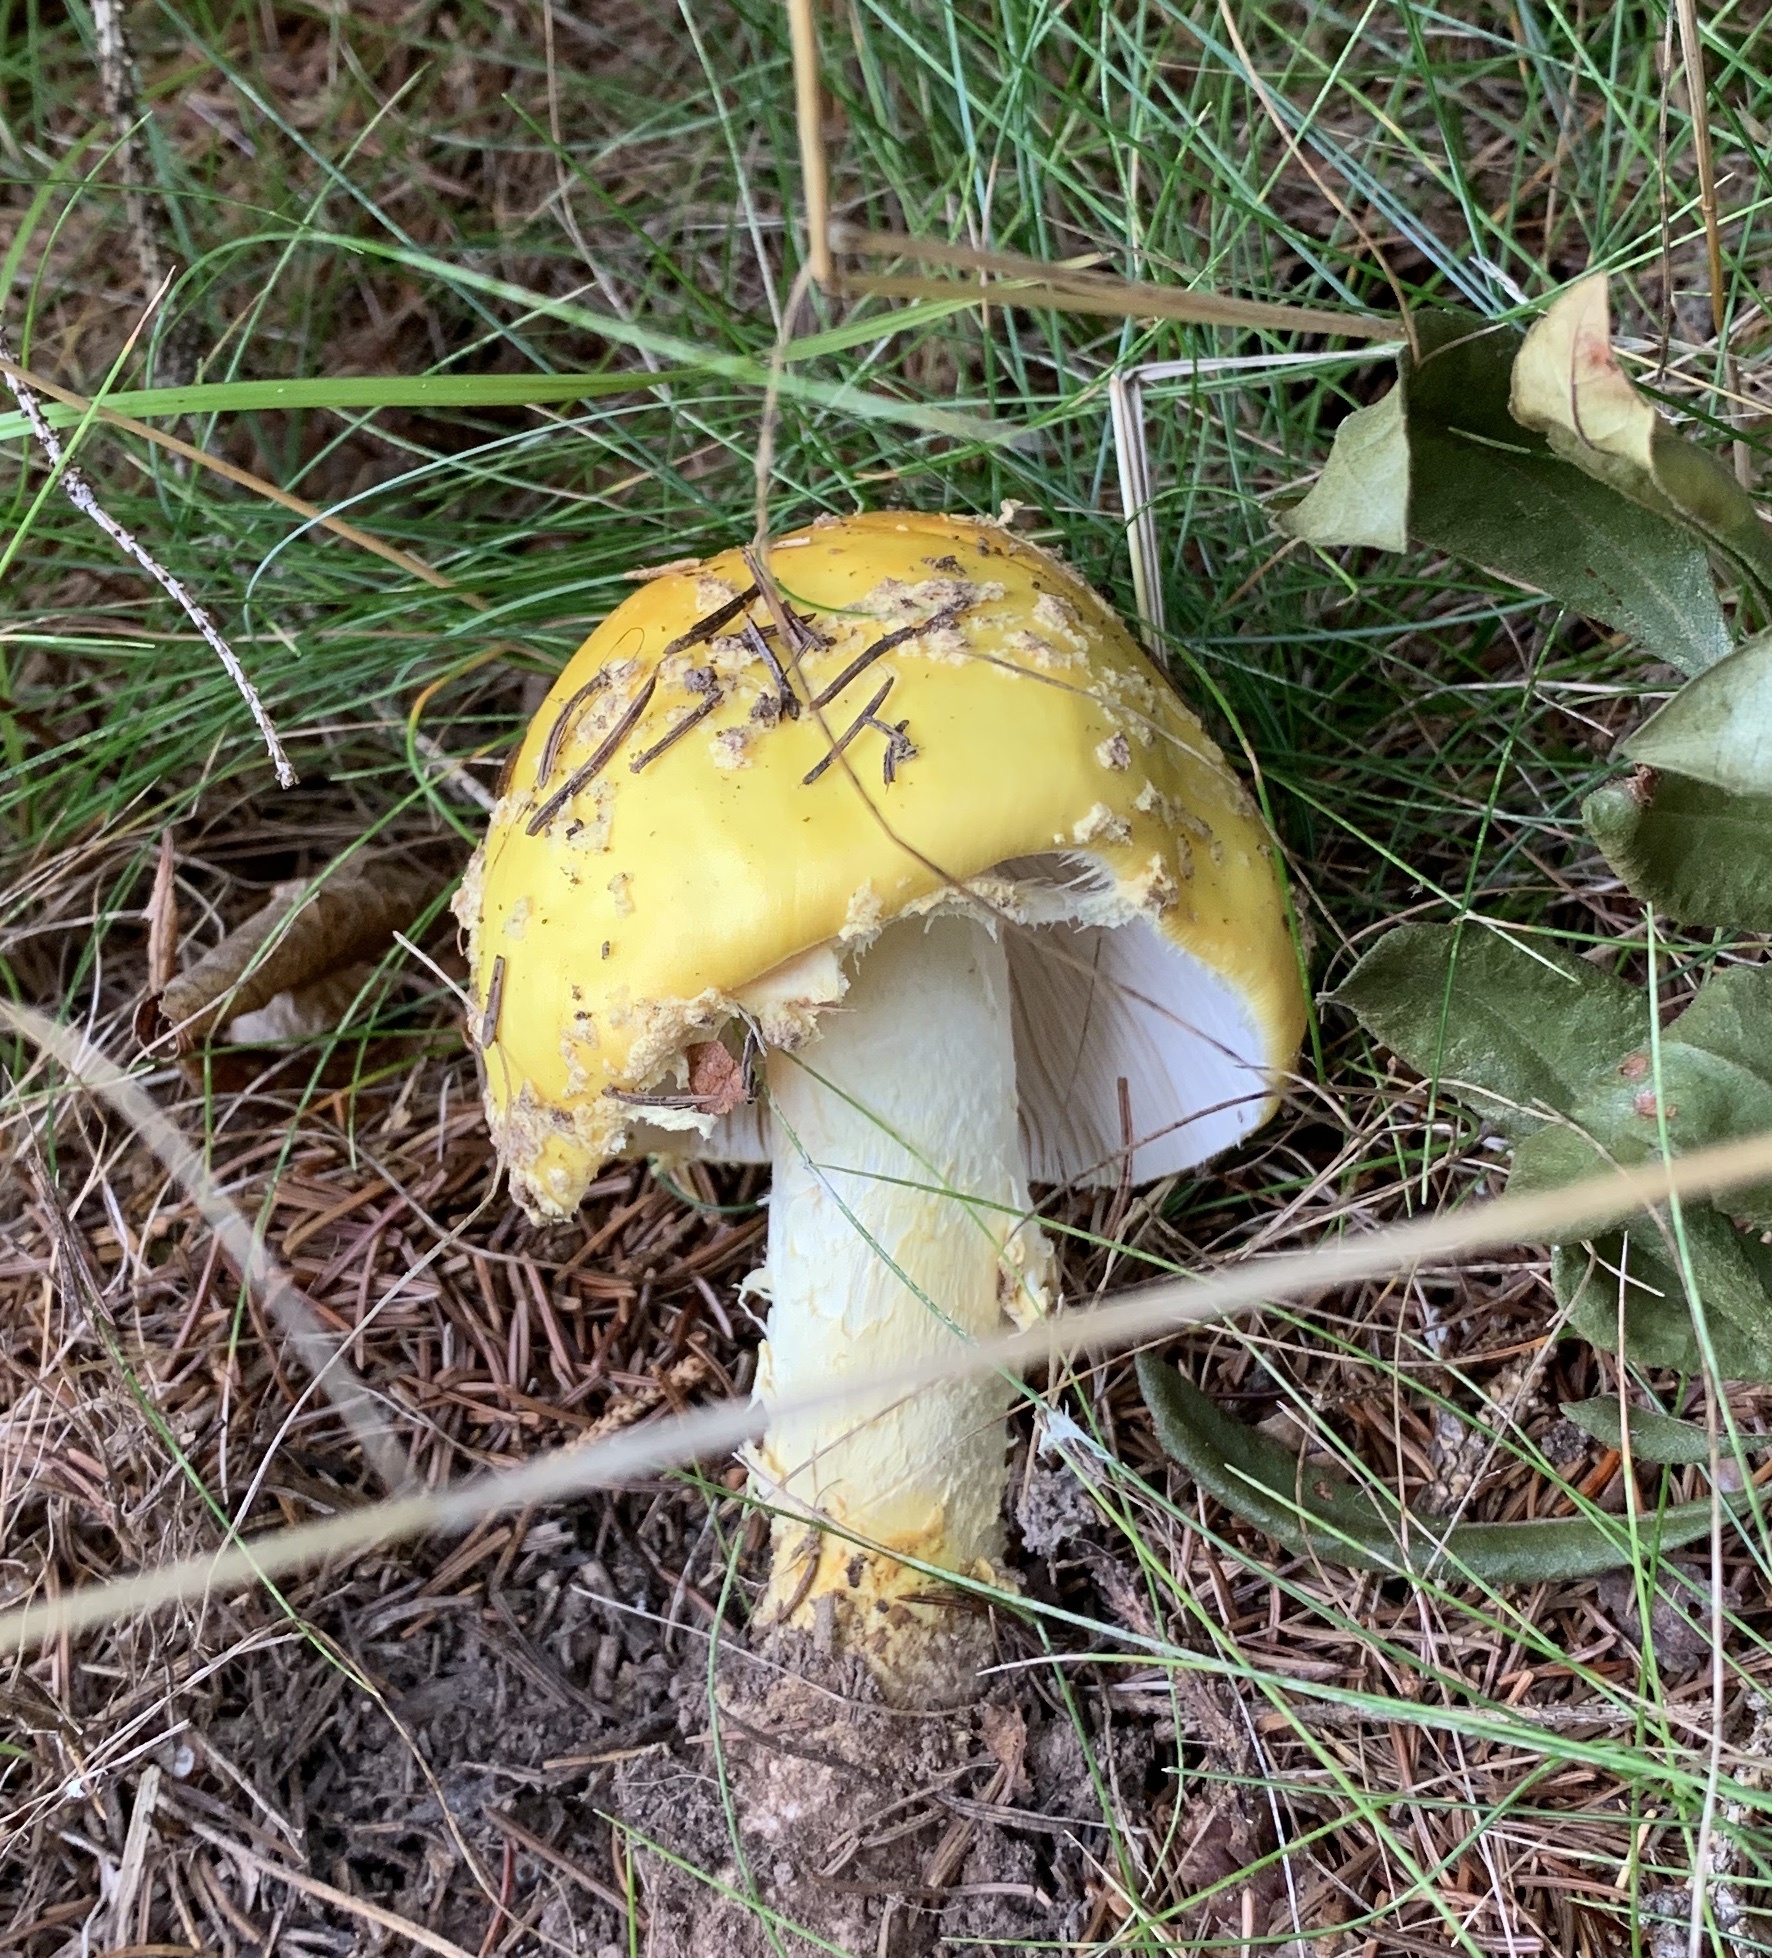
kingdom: Fungi
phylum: Basidiomycota
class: Agaricomycetes
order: Agaricales
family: Amanitaceae
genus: Amanita
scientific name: Amanita muscaria
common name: Fly agaric
